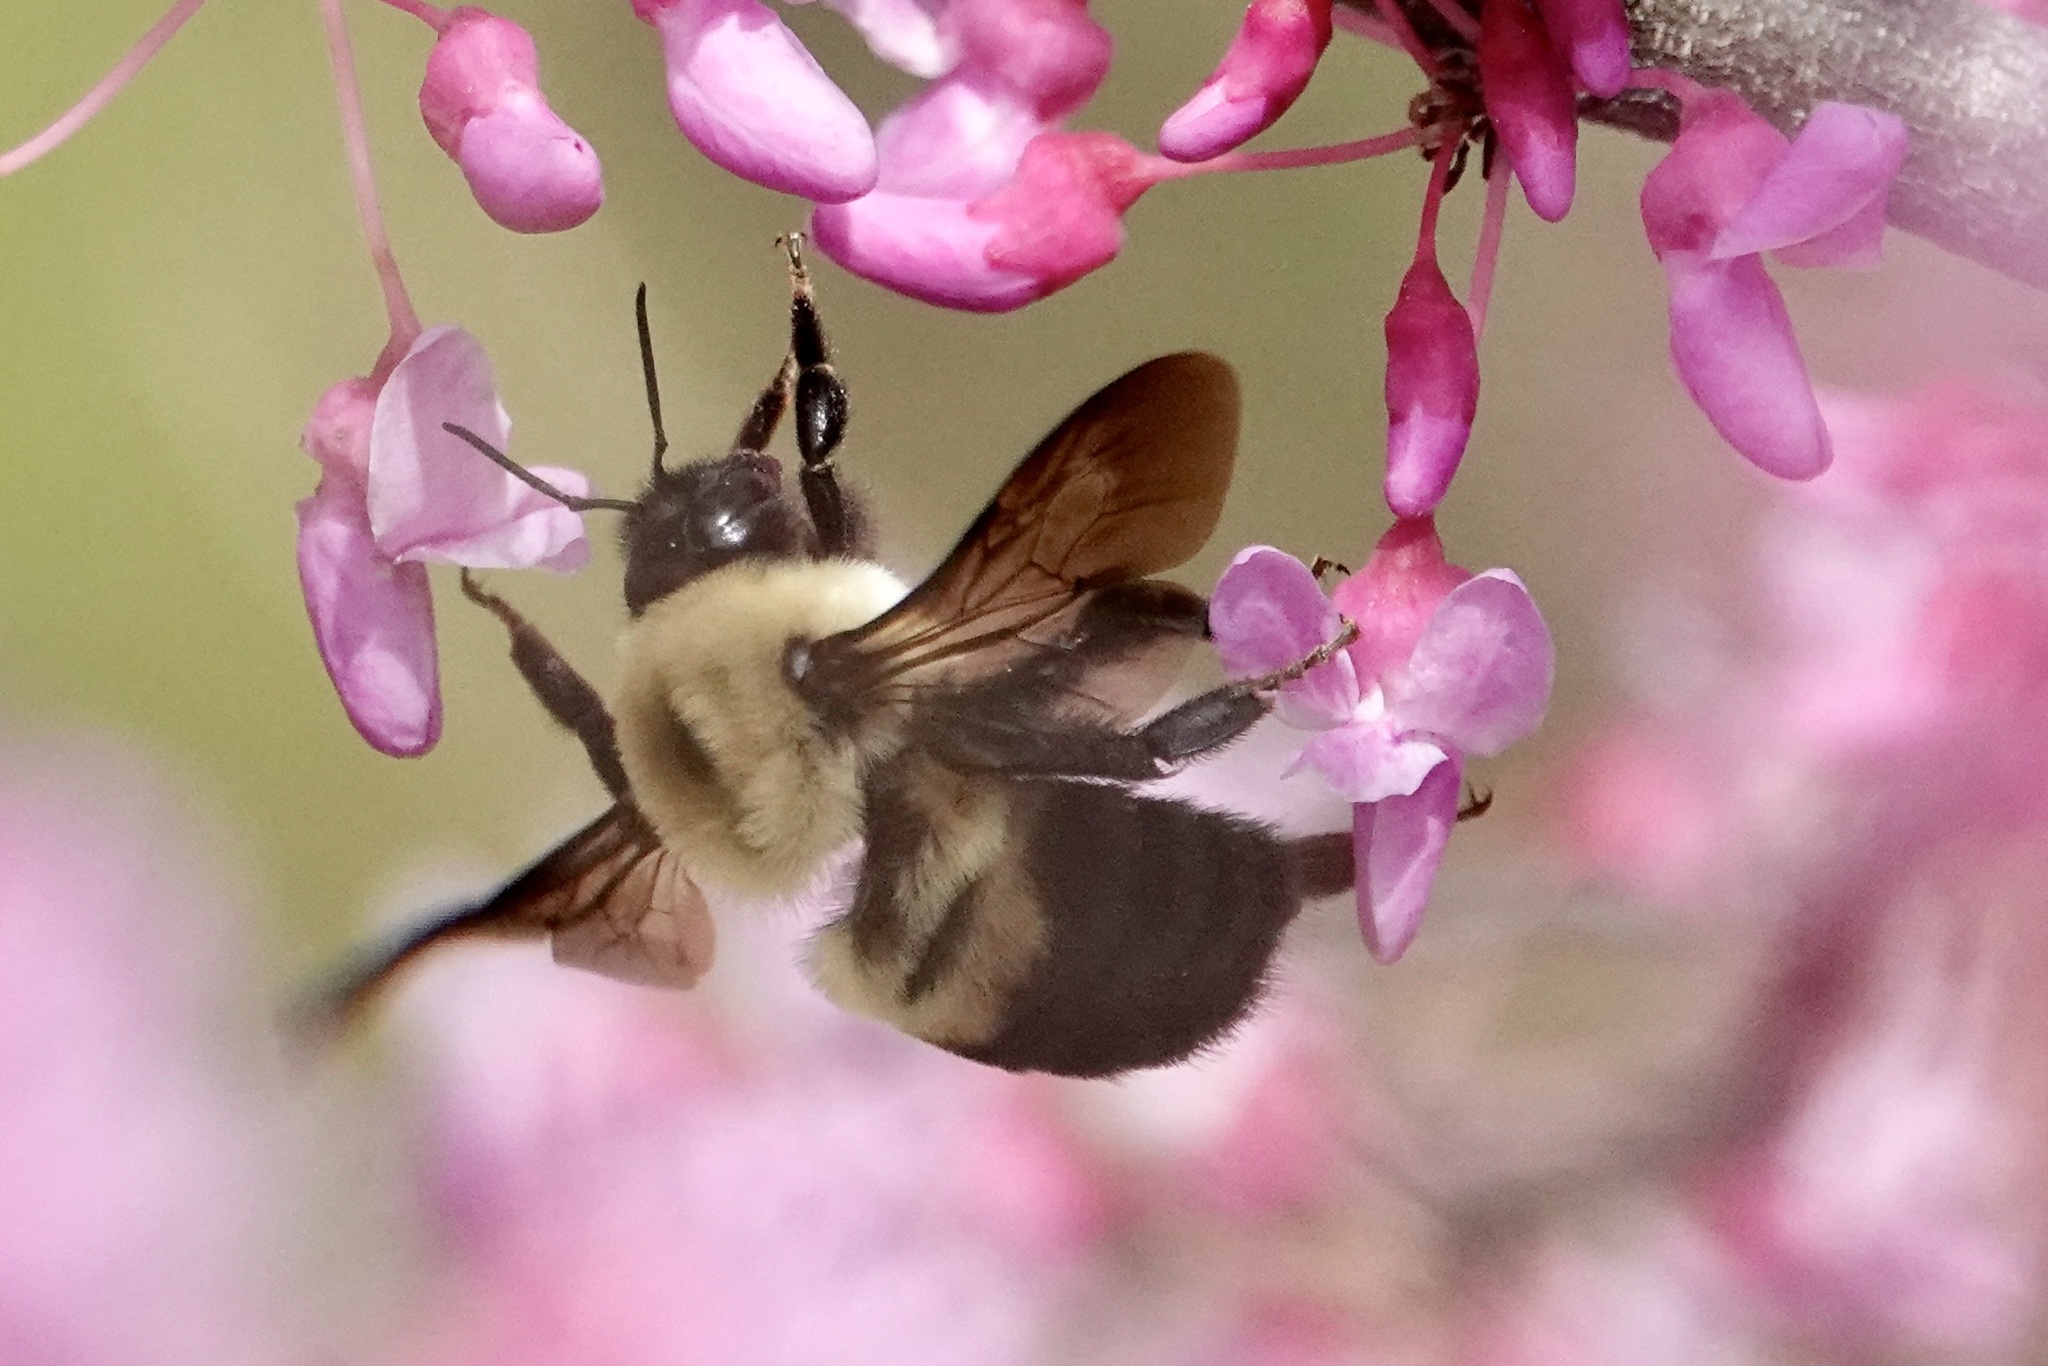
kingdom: Animalia
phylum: Arthropoda
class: Insecta
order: Hymenoptera
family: Apidae
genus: Bombus
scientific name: Bombus griseocollis
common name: Brown-belted bumble bee
